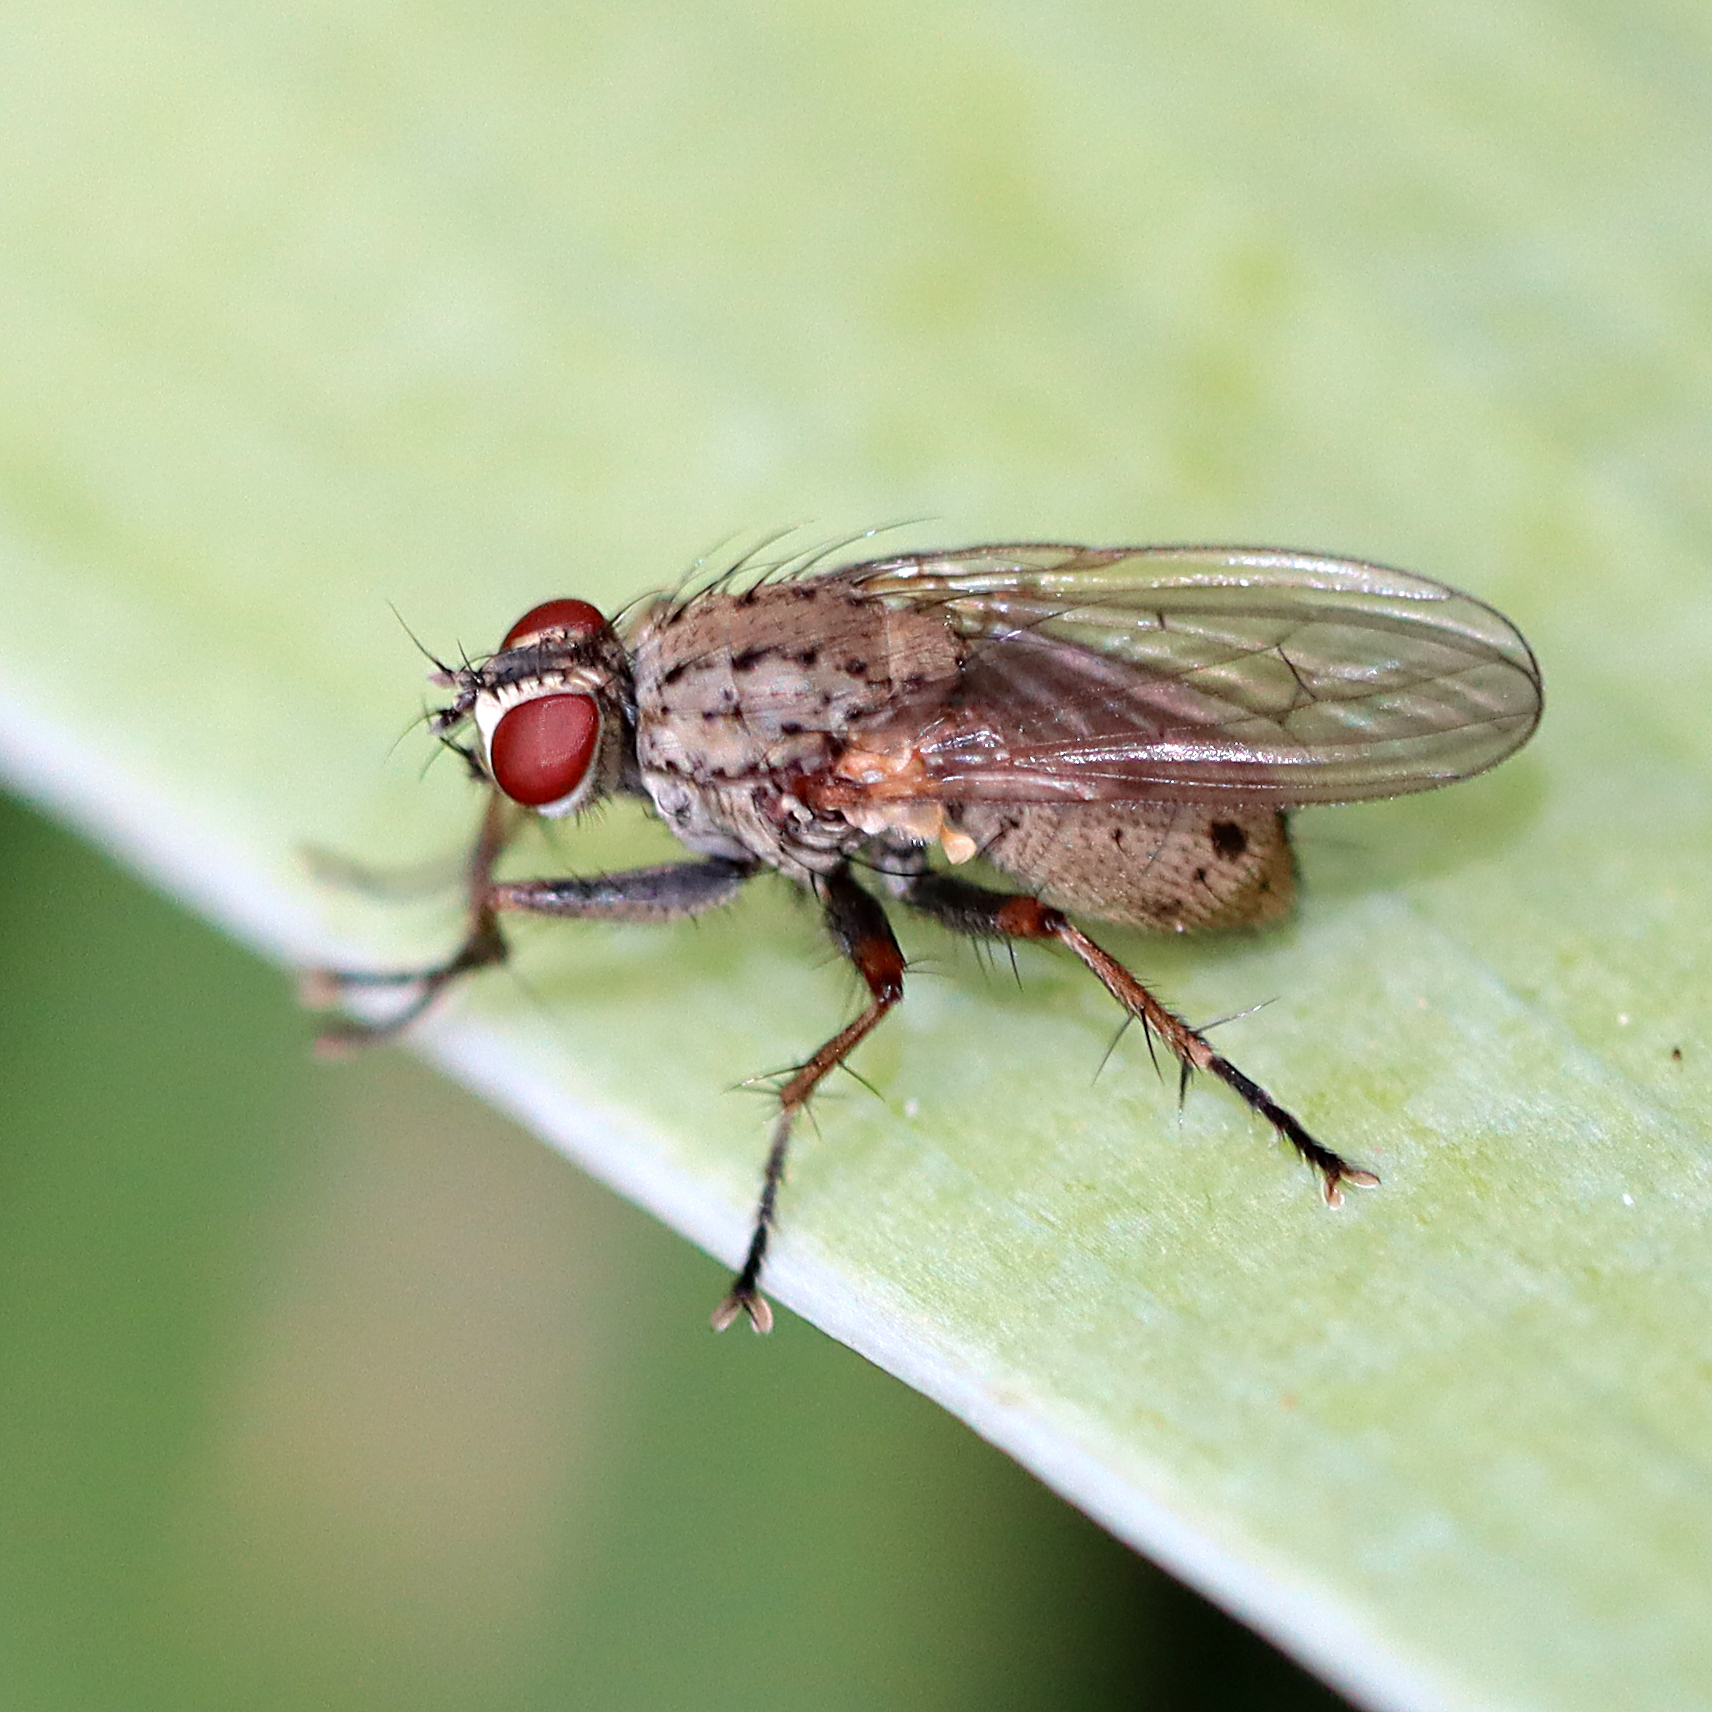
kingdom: Animalia
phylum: Arthropoda
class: Insecta
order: Diptera
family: Muscidae
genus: Coenosia
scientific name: Coenosia tigrina
